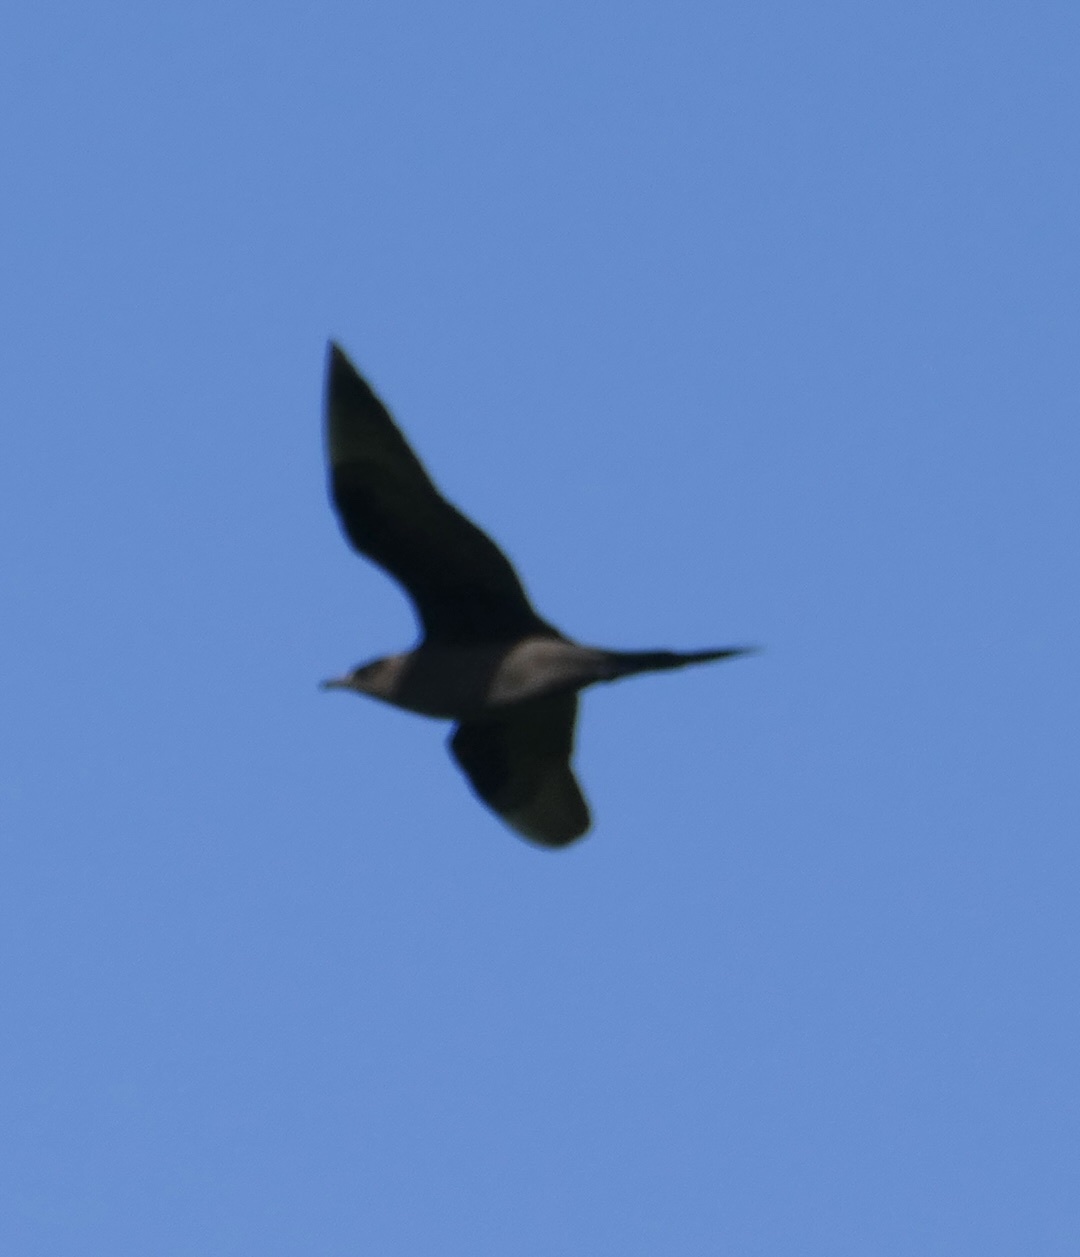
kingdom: Animalia
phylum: Chordata
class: Aves
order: Charadriiformes
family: Stercorariidae
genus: Stercorarius
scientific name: Stercorarius parasiticus
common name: Parasitic jaeger
